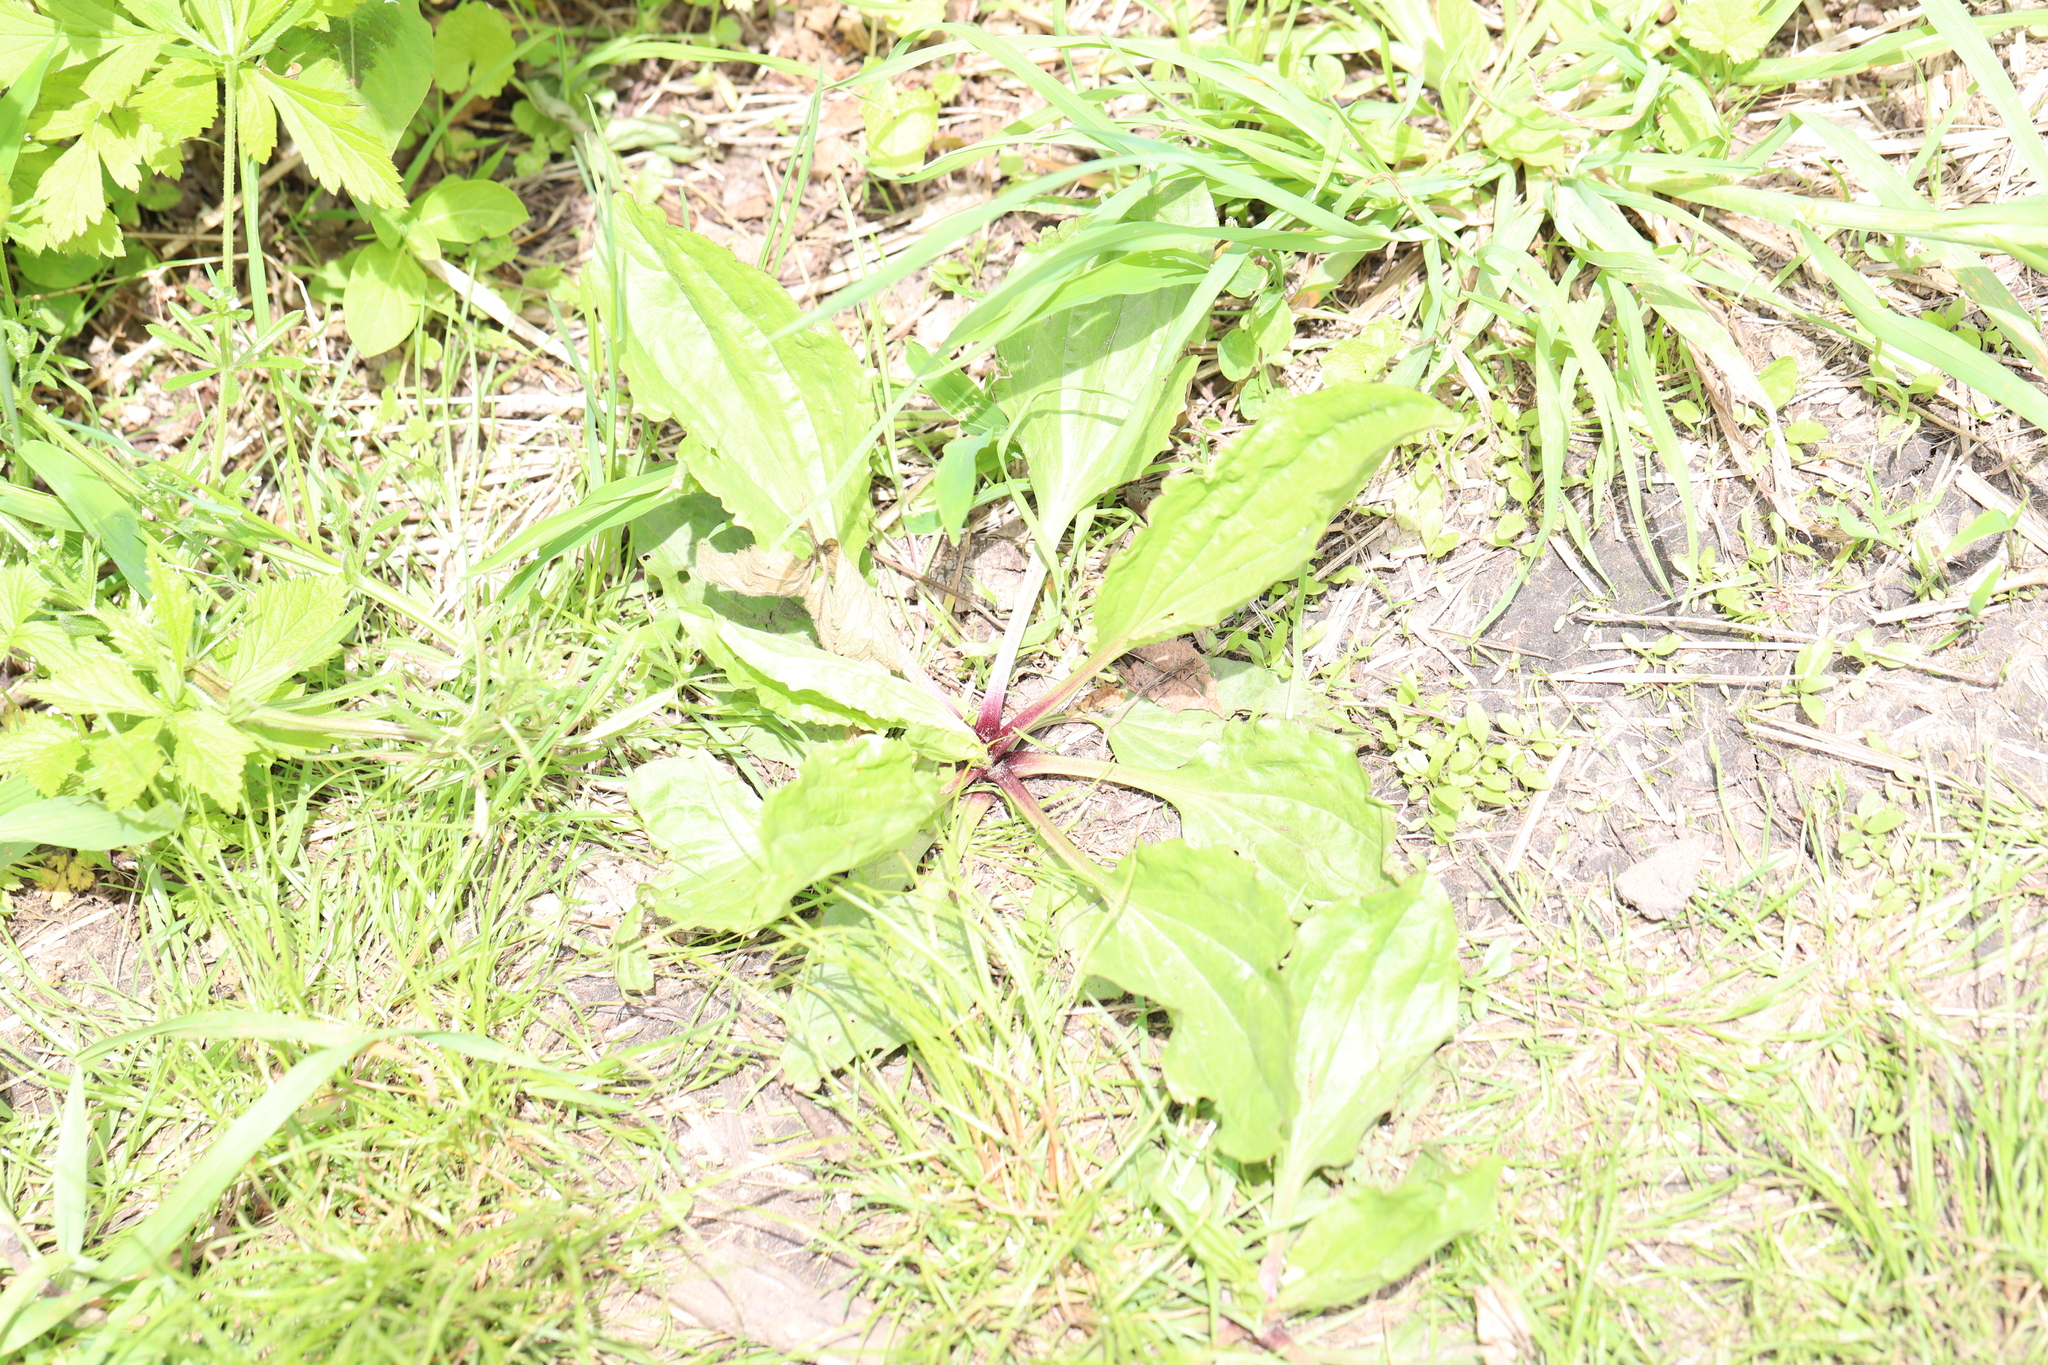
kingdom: Plantae
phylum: Tracheophyta
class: Magnoliopsida
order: Lamiales
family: Plantaginaceae
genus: Plantago
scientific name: Plantago rugelii
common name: American plantain
